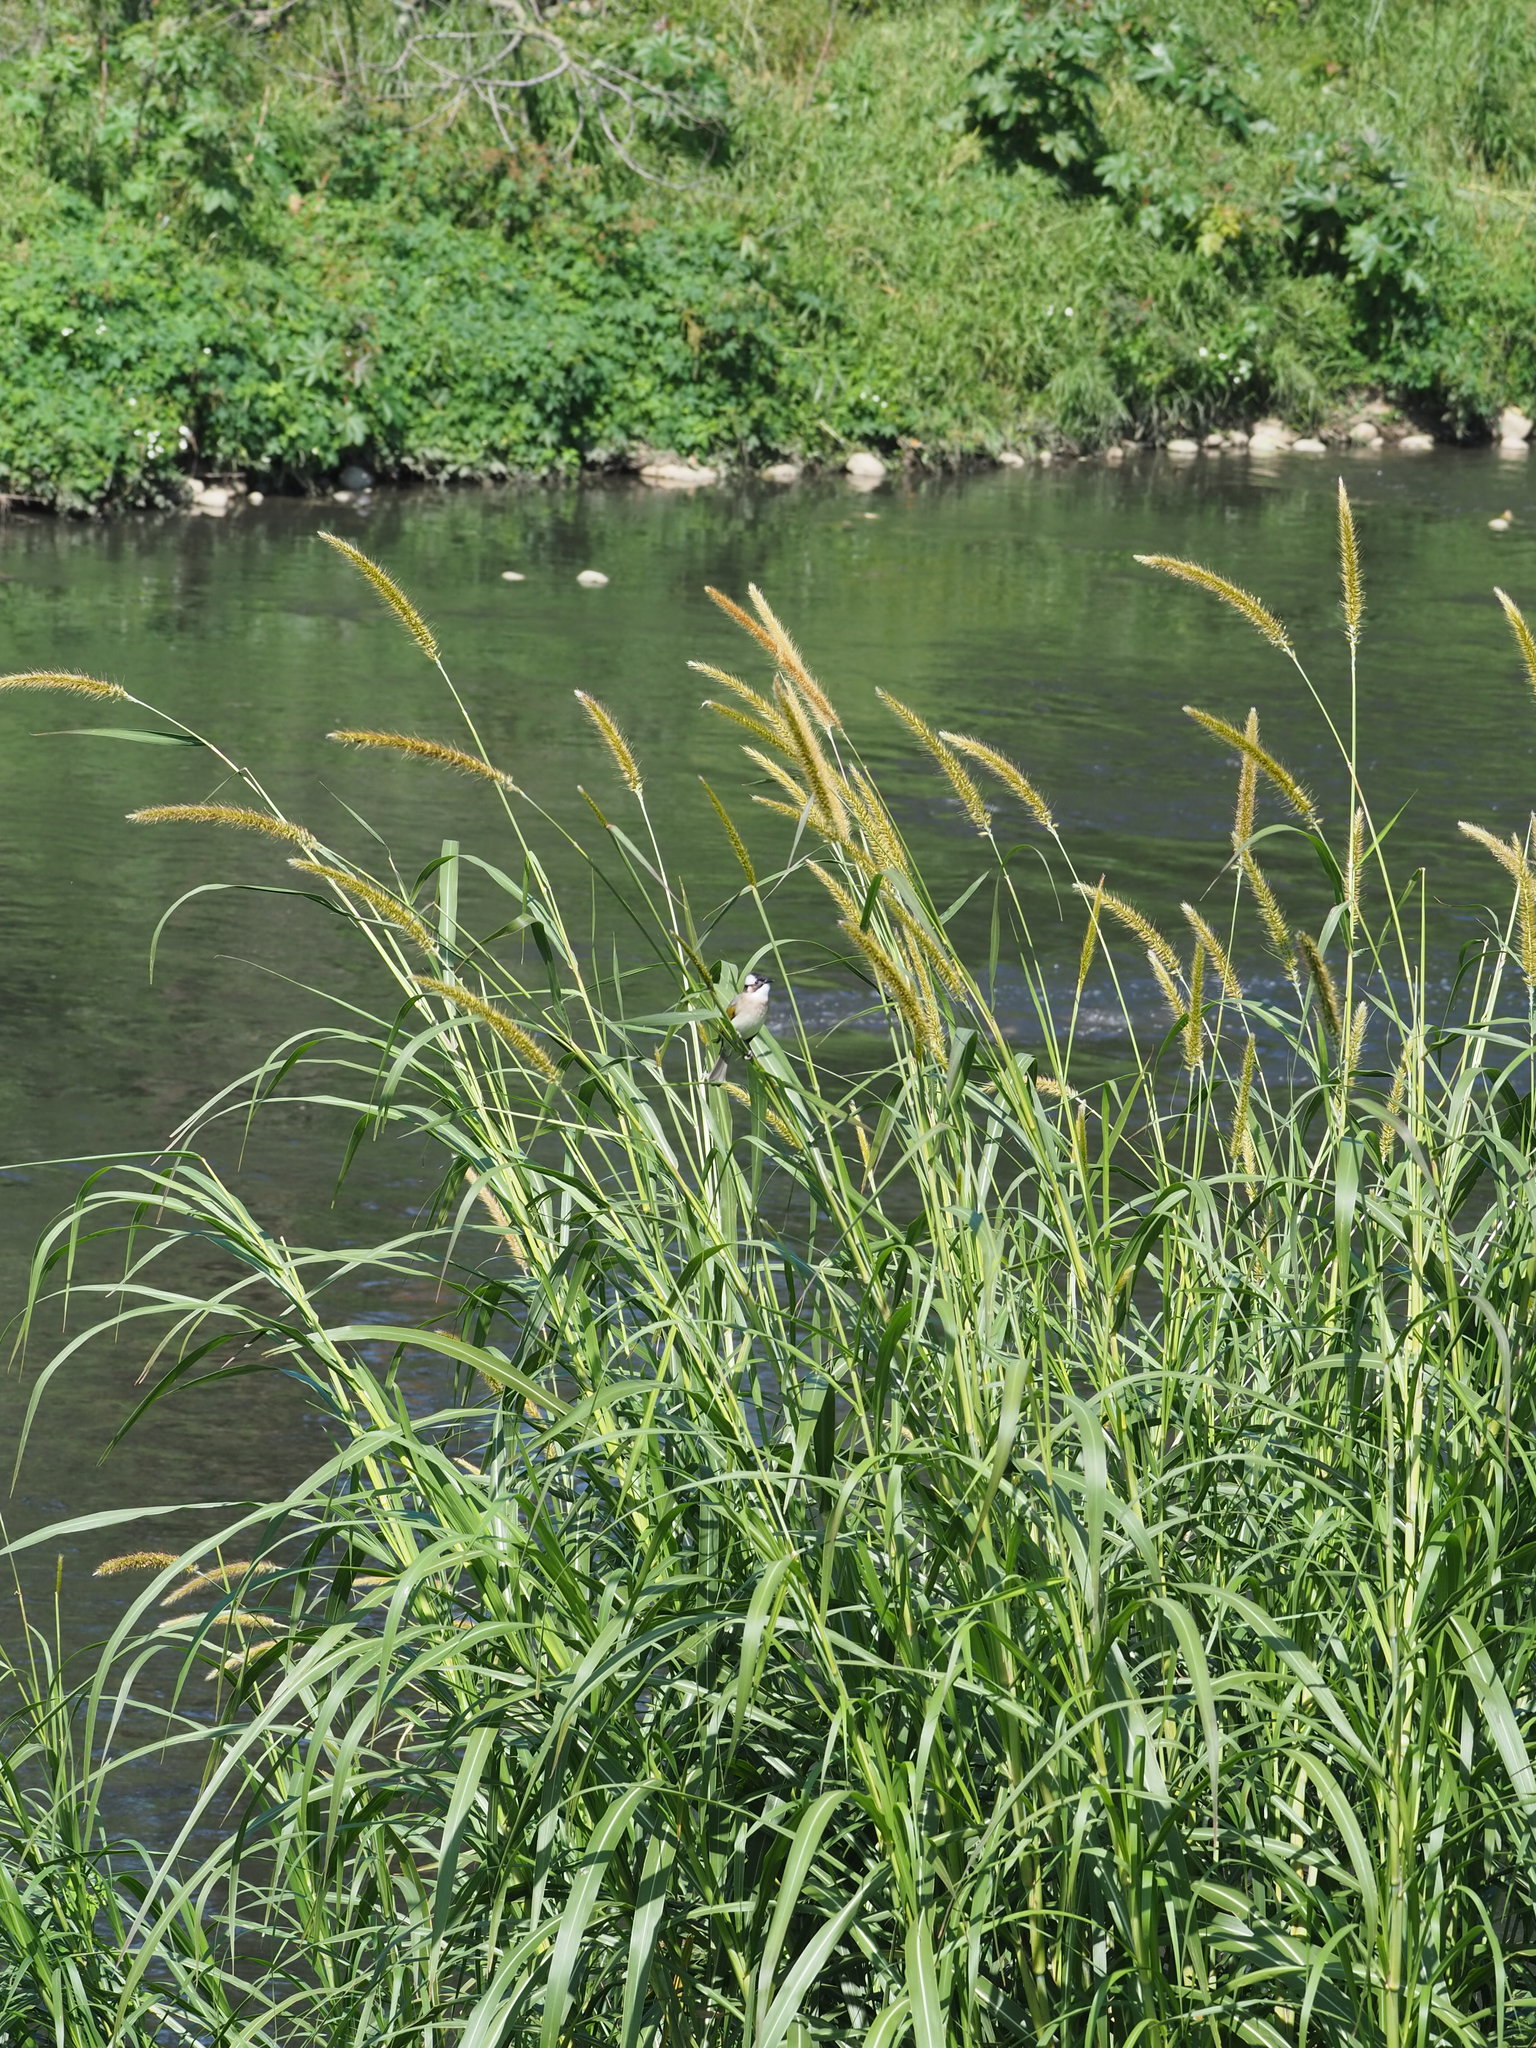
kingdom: Plantae
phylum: Tracheophyta
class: Liliopsida
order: Poales
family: Poaceae
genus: Cenchrus
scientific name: Cenchrus purpureus
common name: Elephant grass
